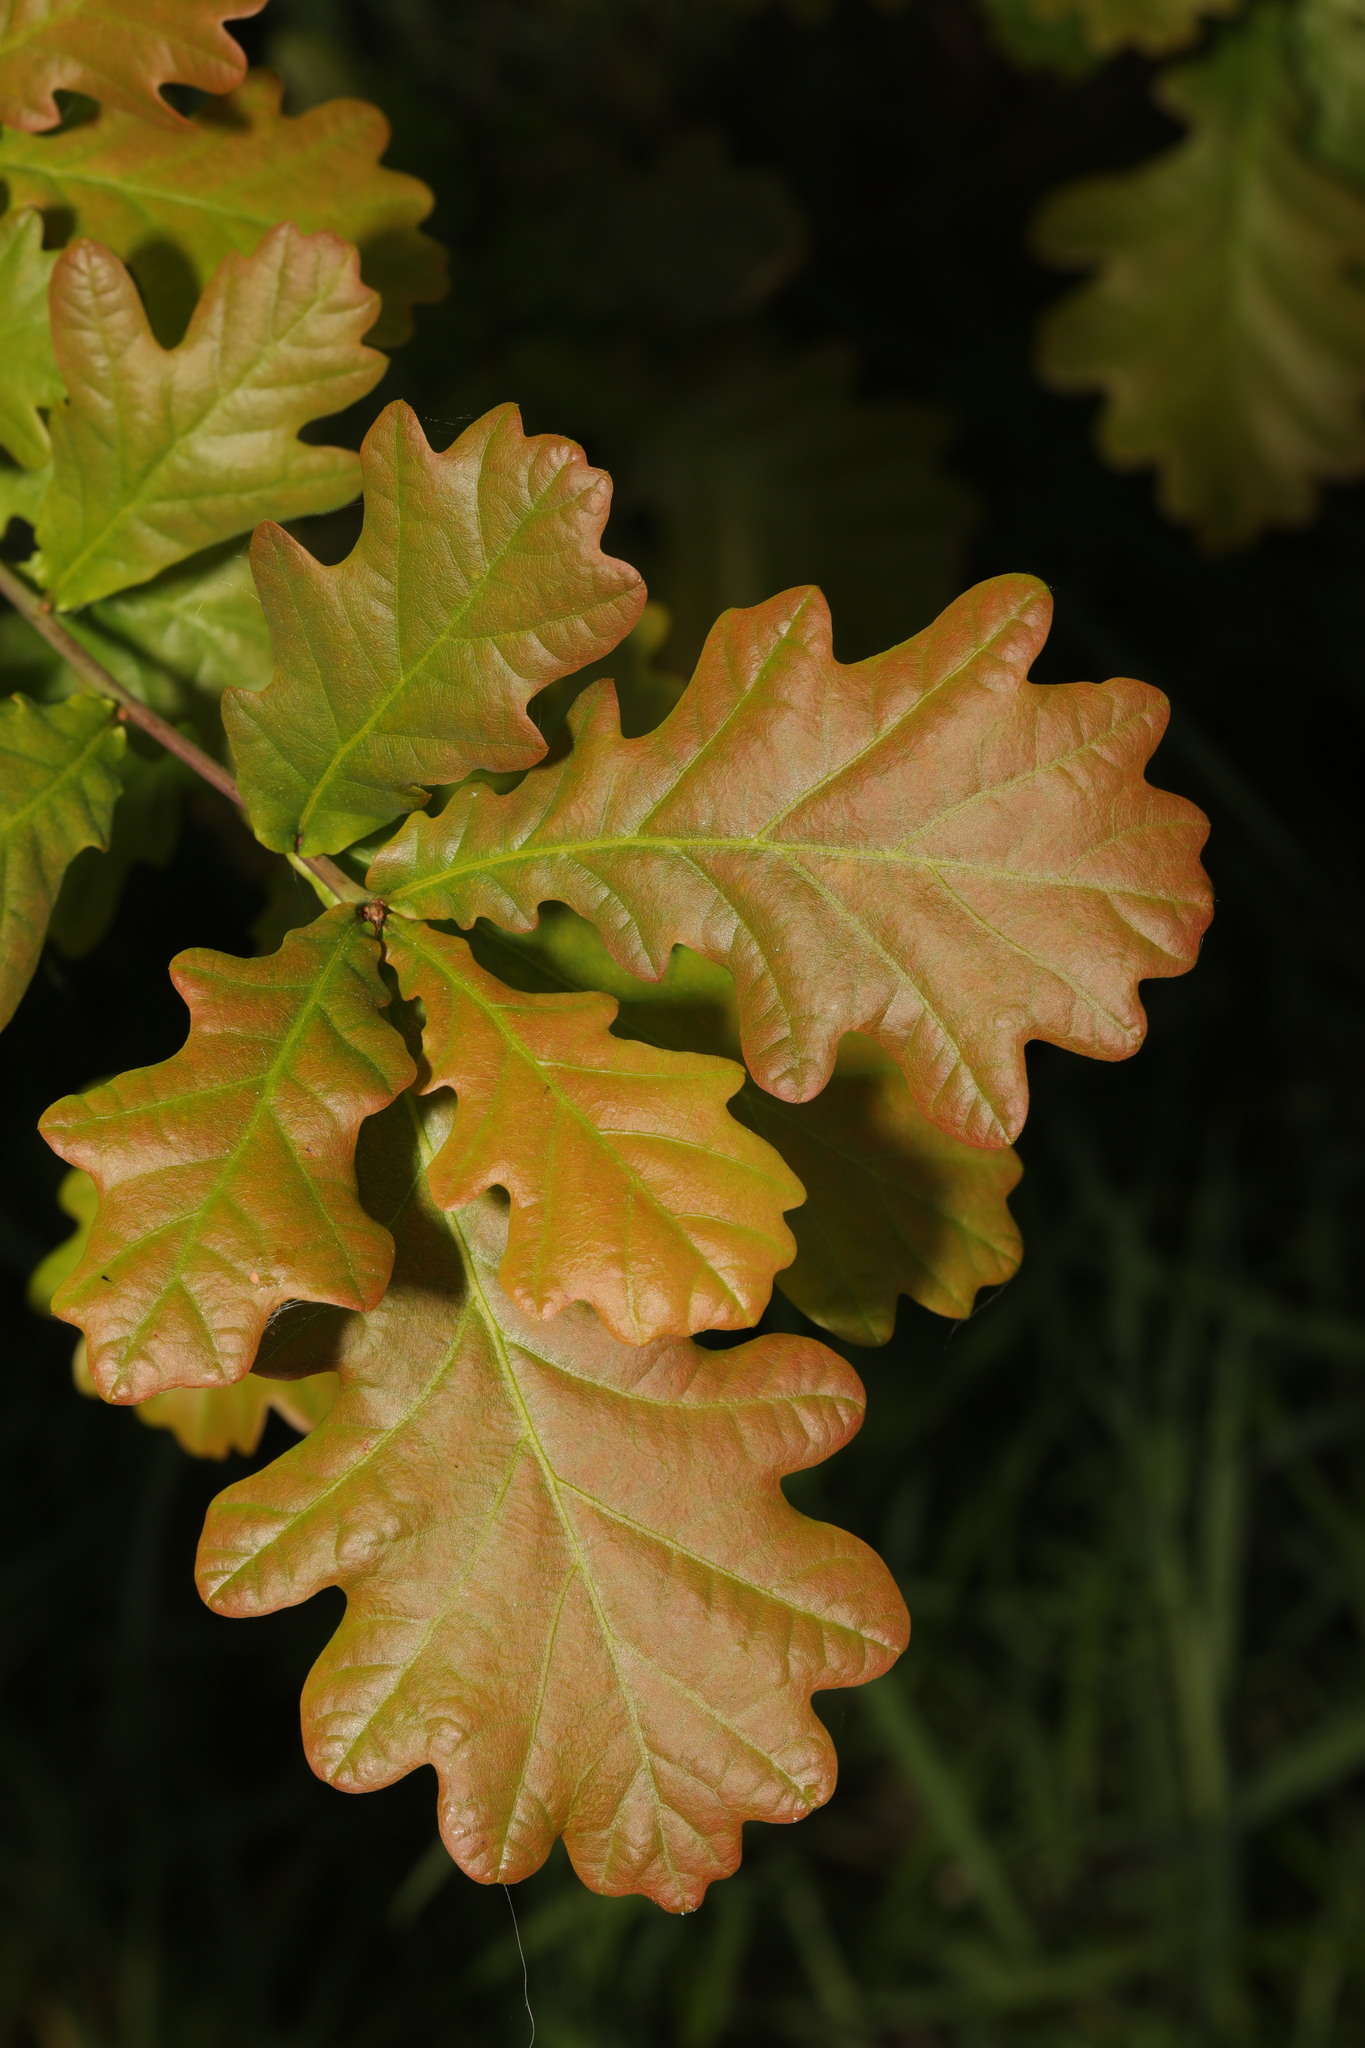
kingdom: Plantae
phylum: Tracheophyta
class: Magnoliopsida
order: Fagales
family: Fagaceae
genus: Quercus
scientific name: Quercus robur
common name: Pedunculate oak
